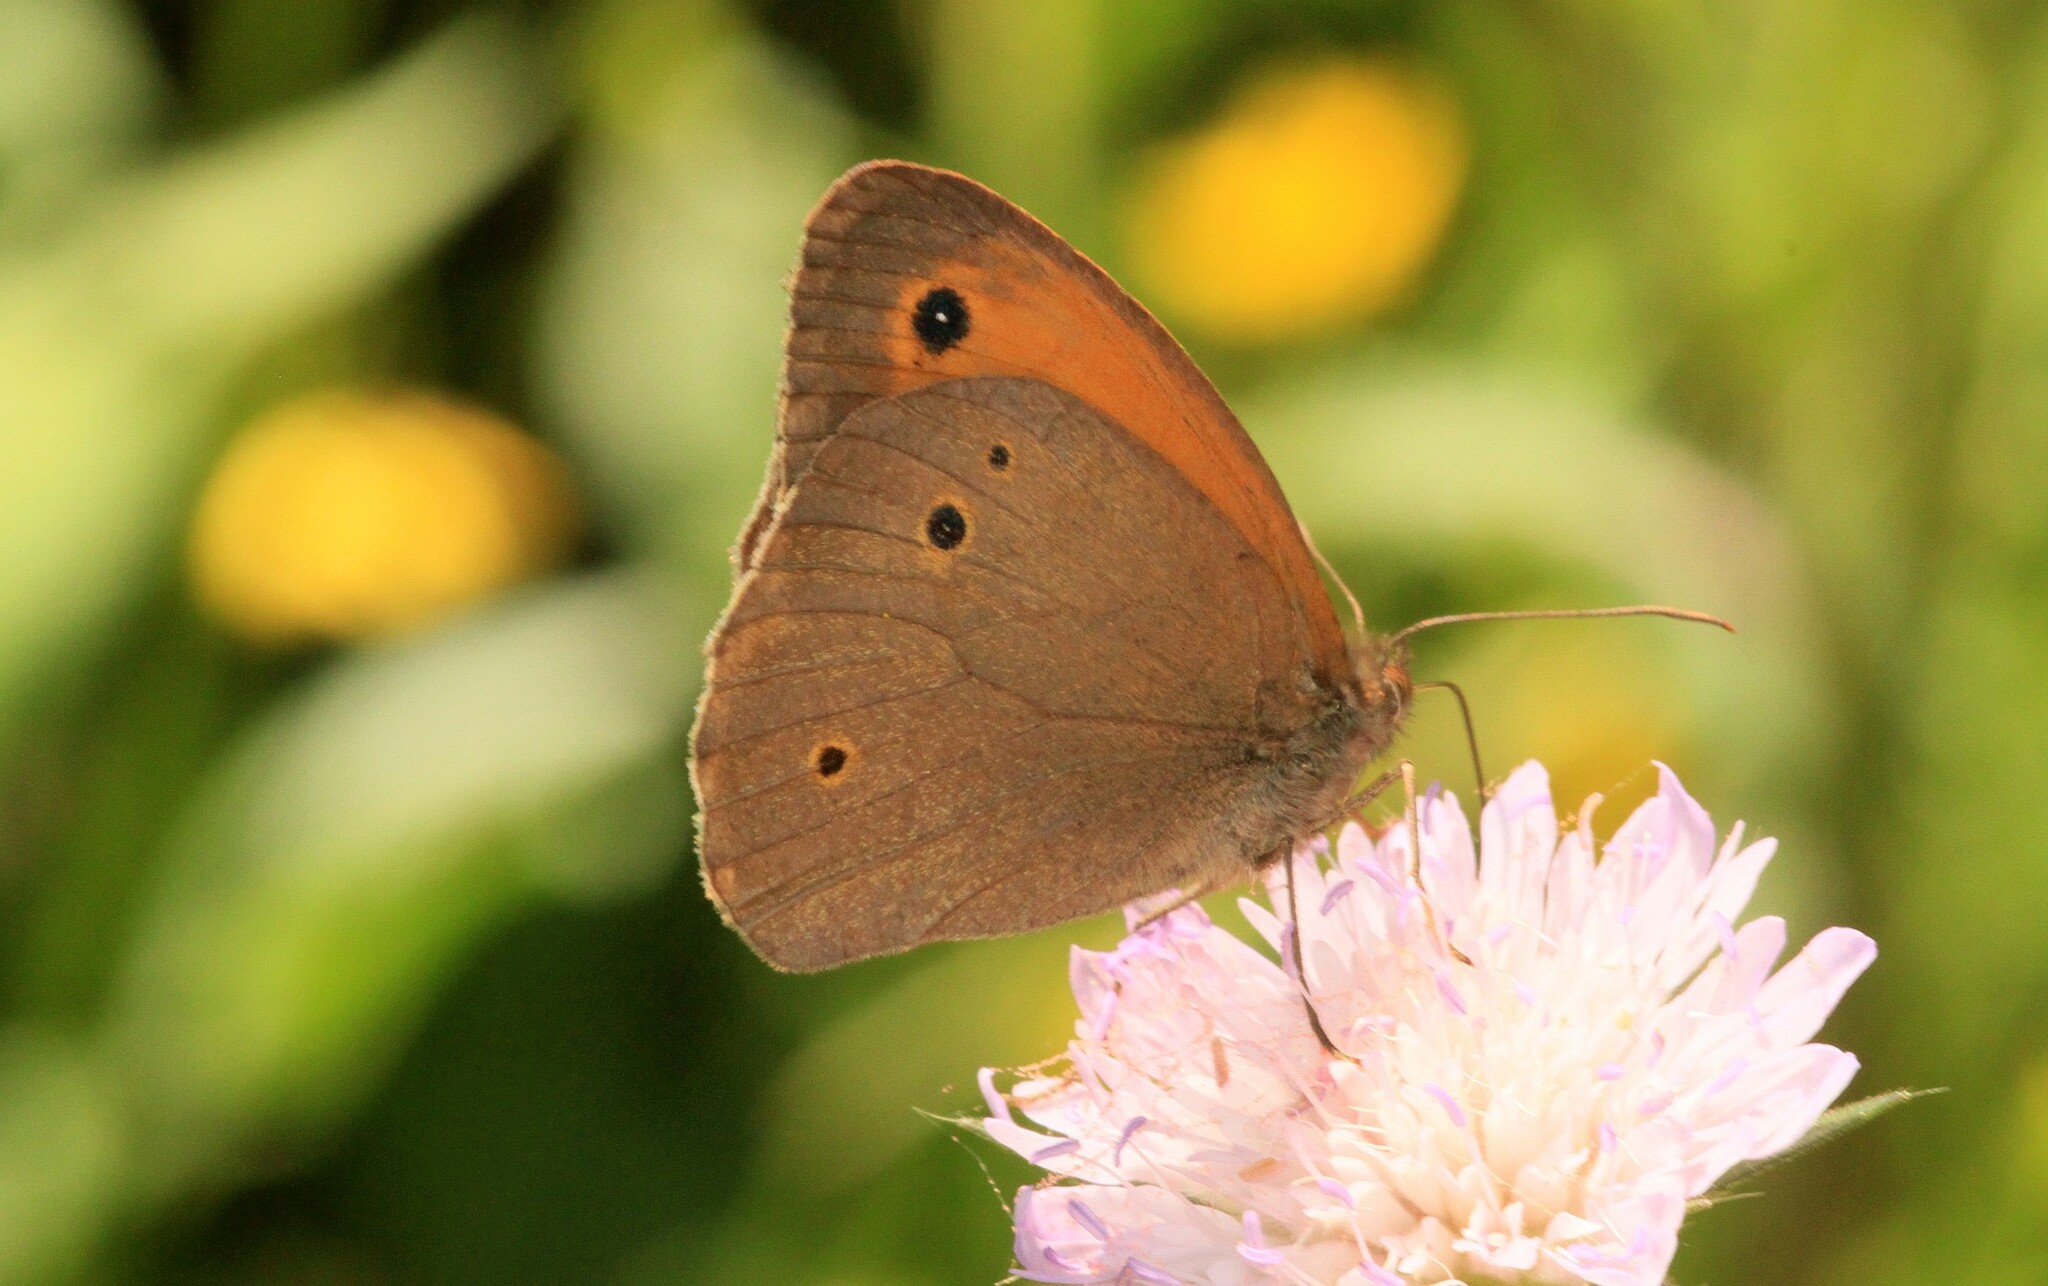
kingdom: Animalia
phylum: Arthropoda
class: Insecta
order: Lepidoptera
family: Nymphalidae
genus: Maniola
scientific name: Maniola jurtina
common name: Meadow brown
